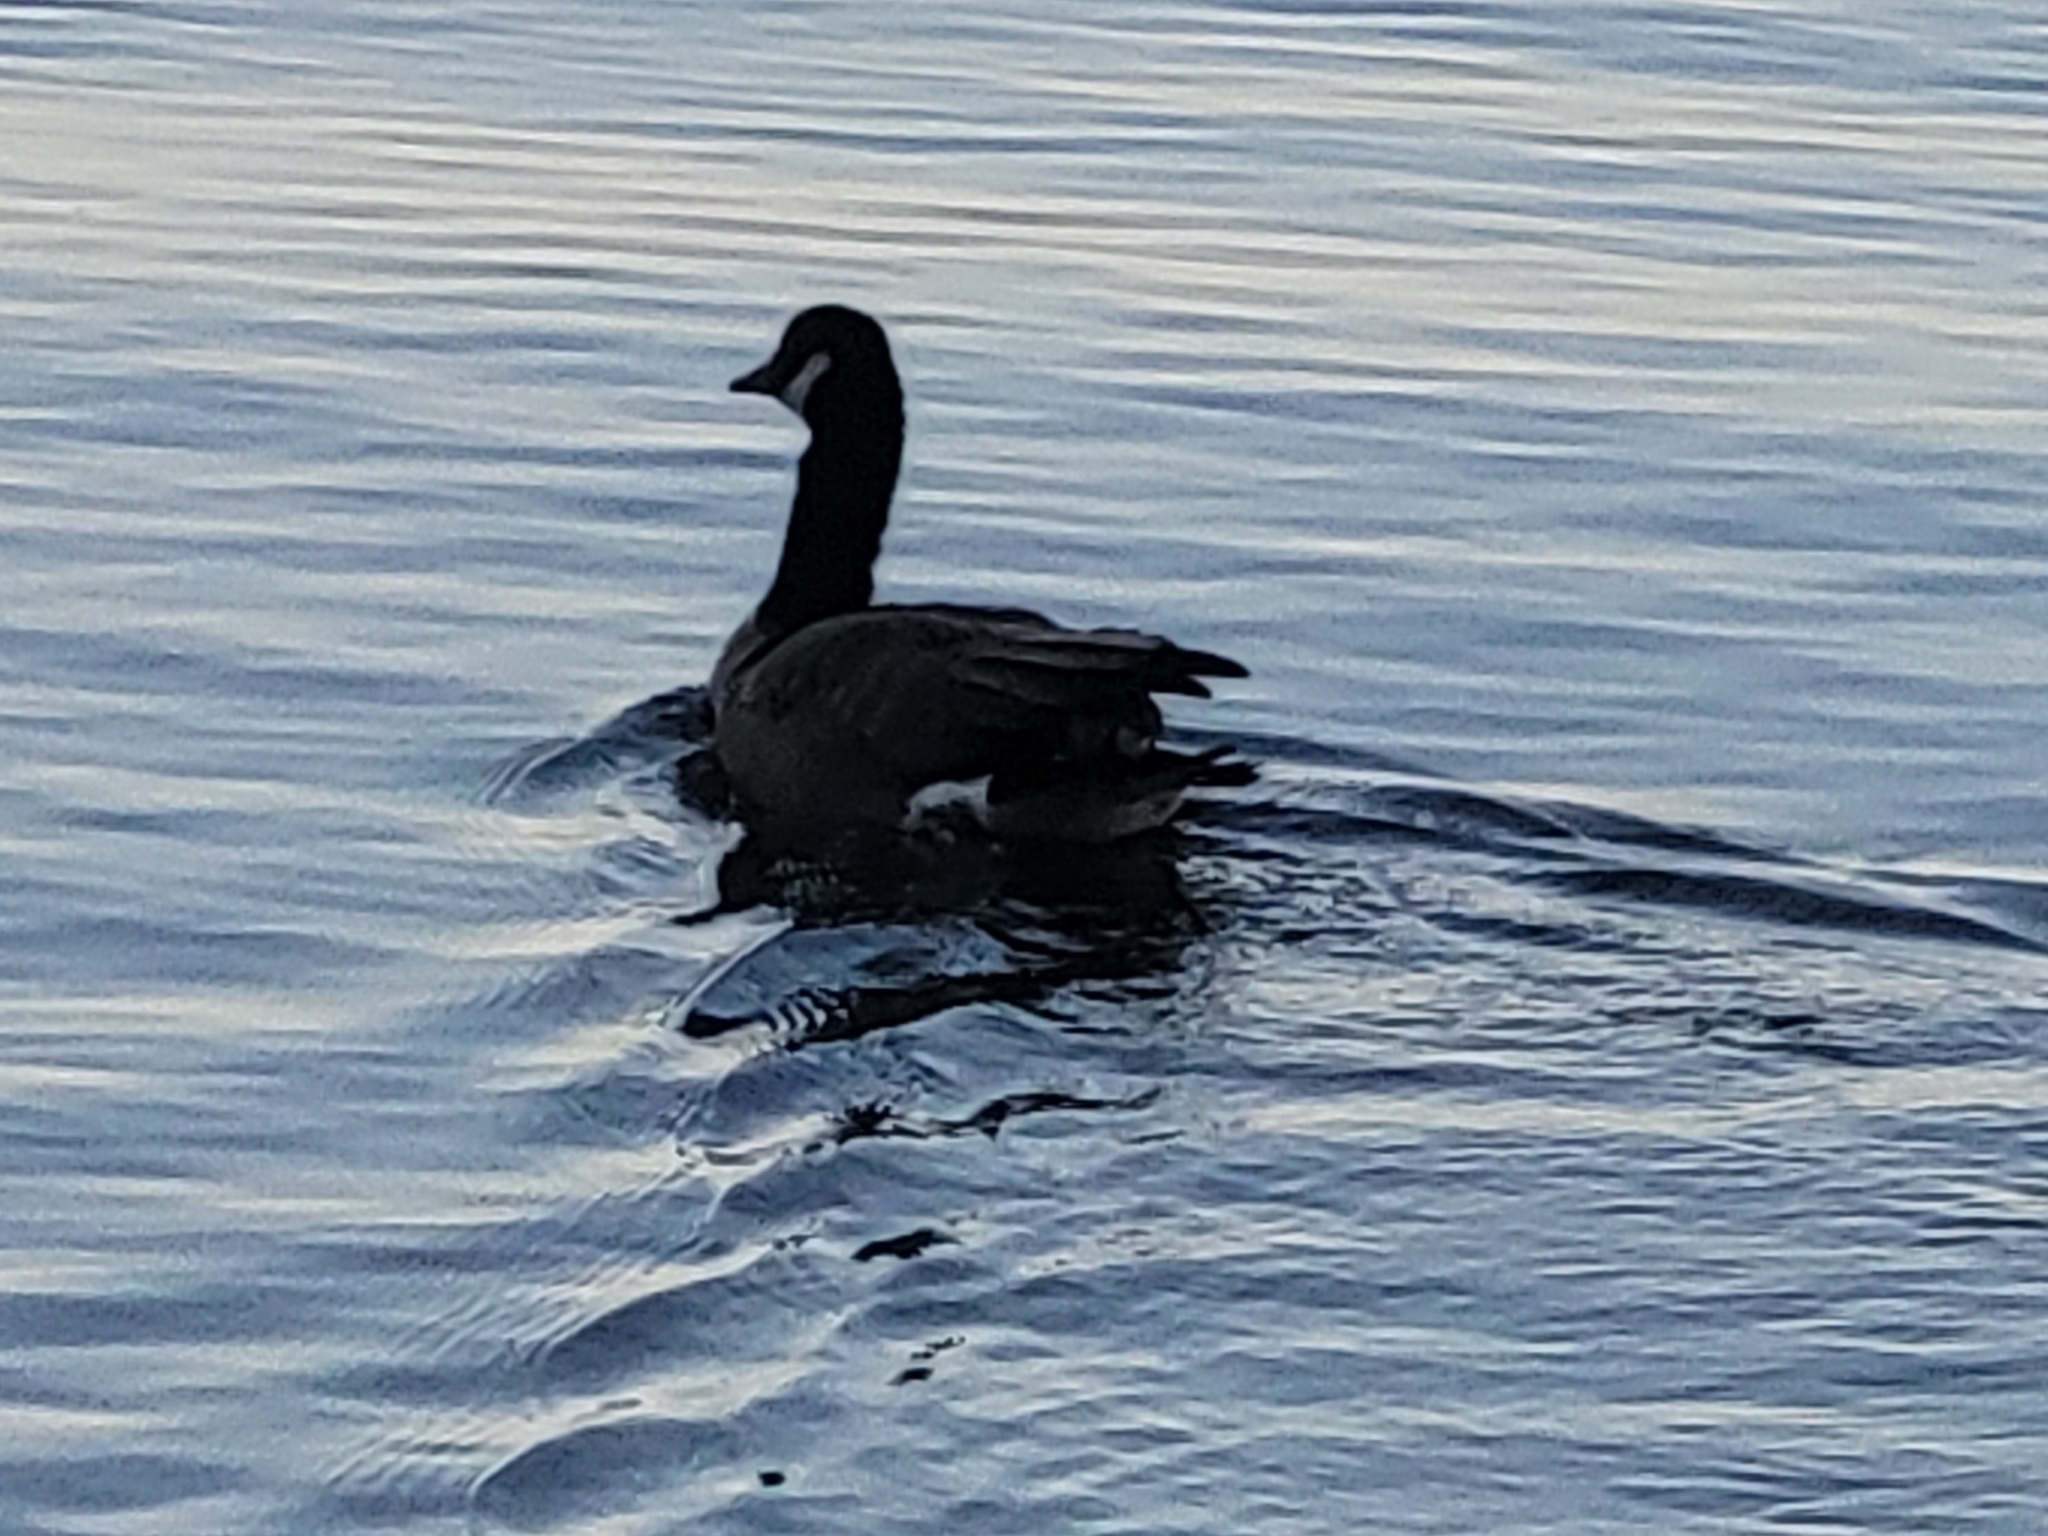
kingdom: Animalia
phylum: Chordata
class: Aves
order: Anseriformes
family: Anatidae
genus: Branta
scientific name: Branta canadensis
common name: Canada goose
